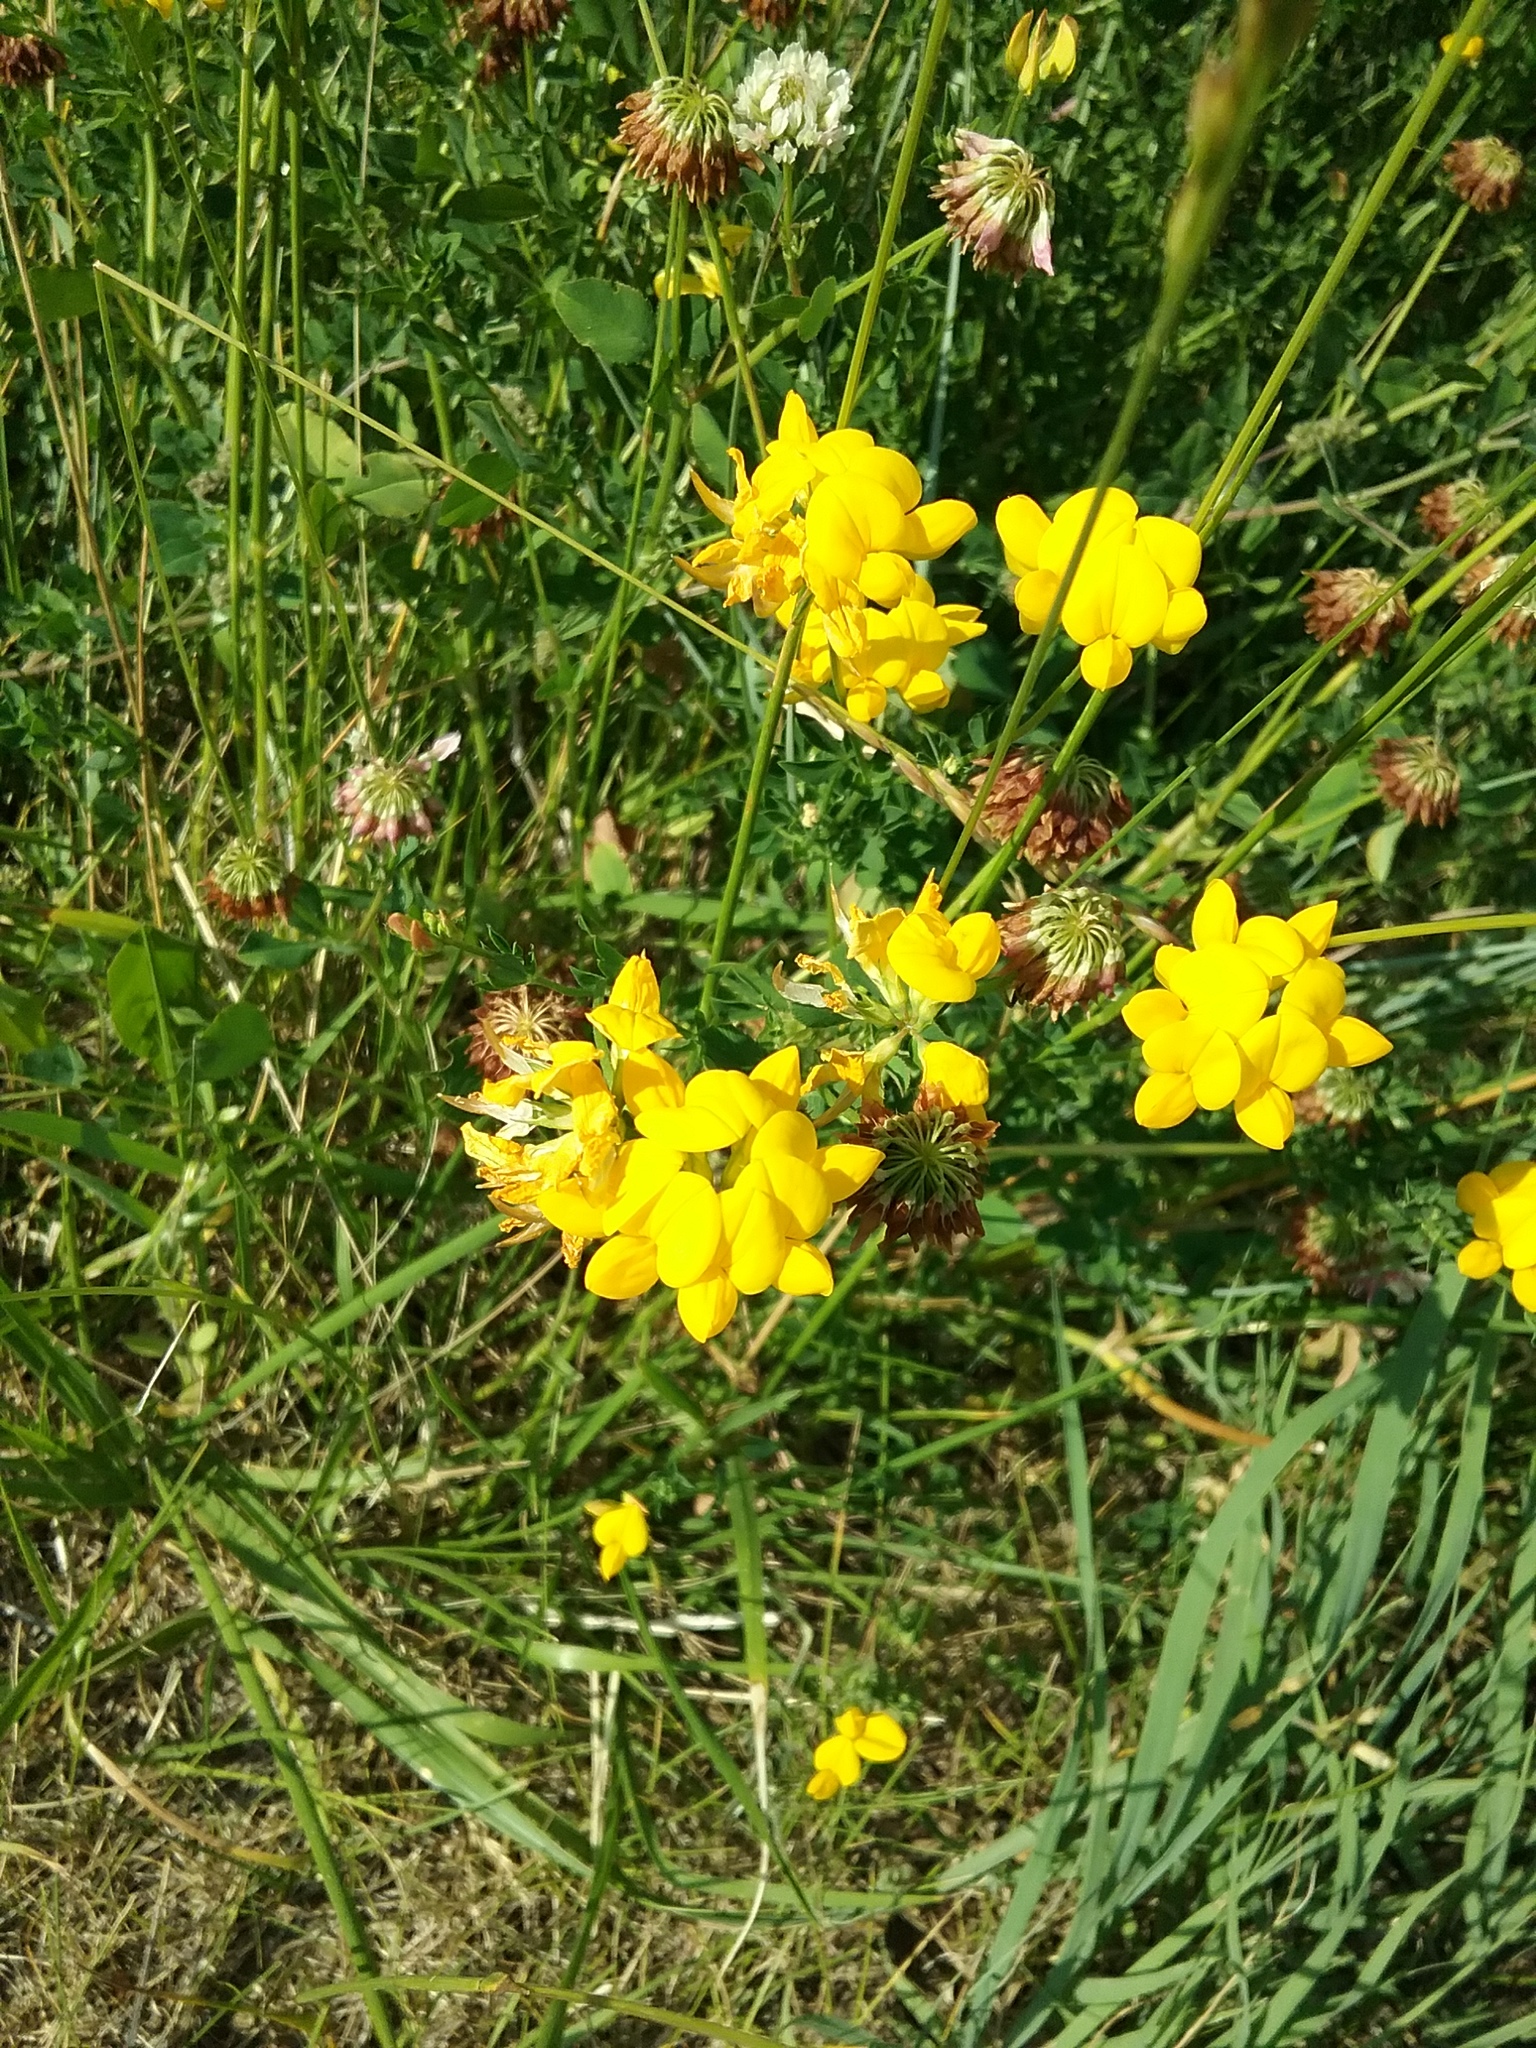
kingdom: Plantae
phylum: Tracheophyta
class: Magnoliopsida
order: Fabales
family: Fabaceae
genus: Lotus
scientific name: Lotus corniculatus
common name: Common bird's-foot-trefoil
